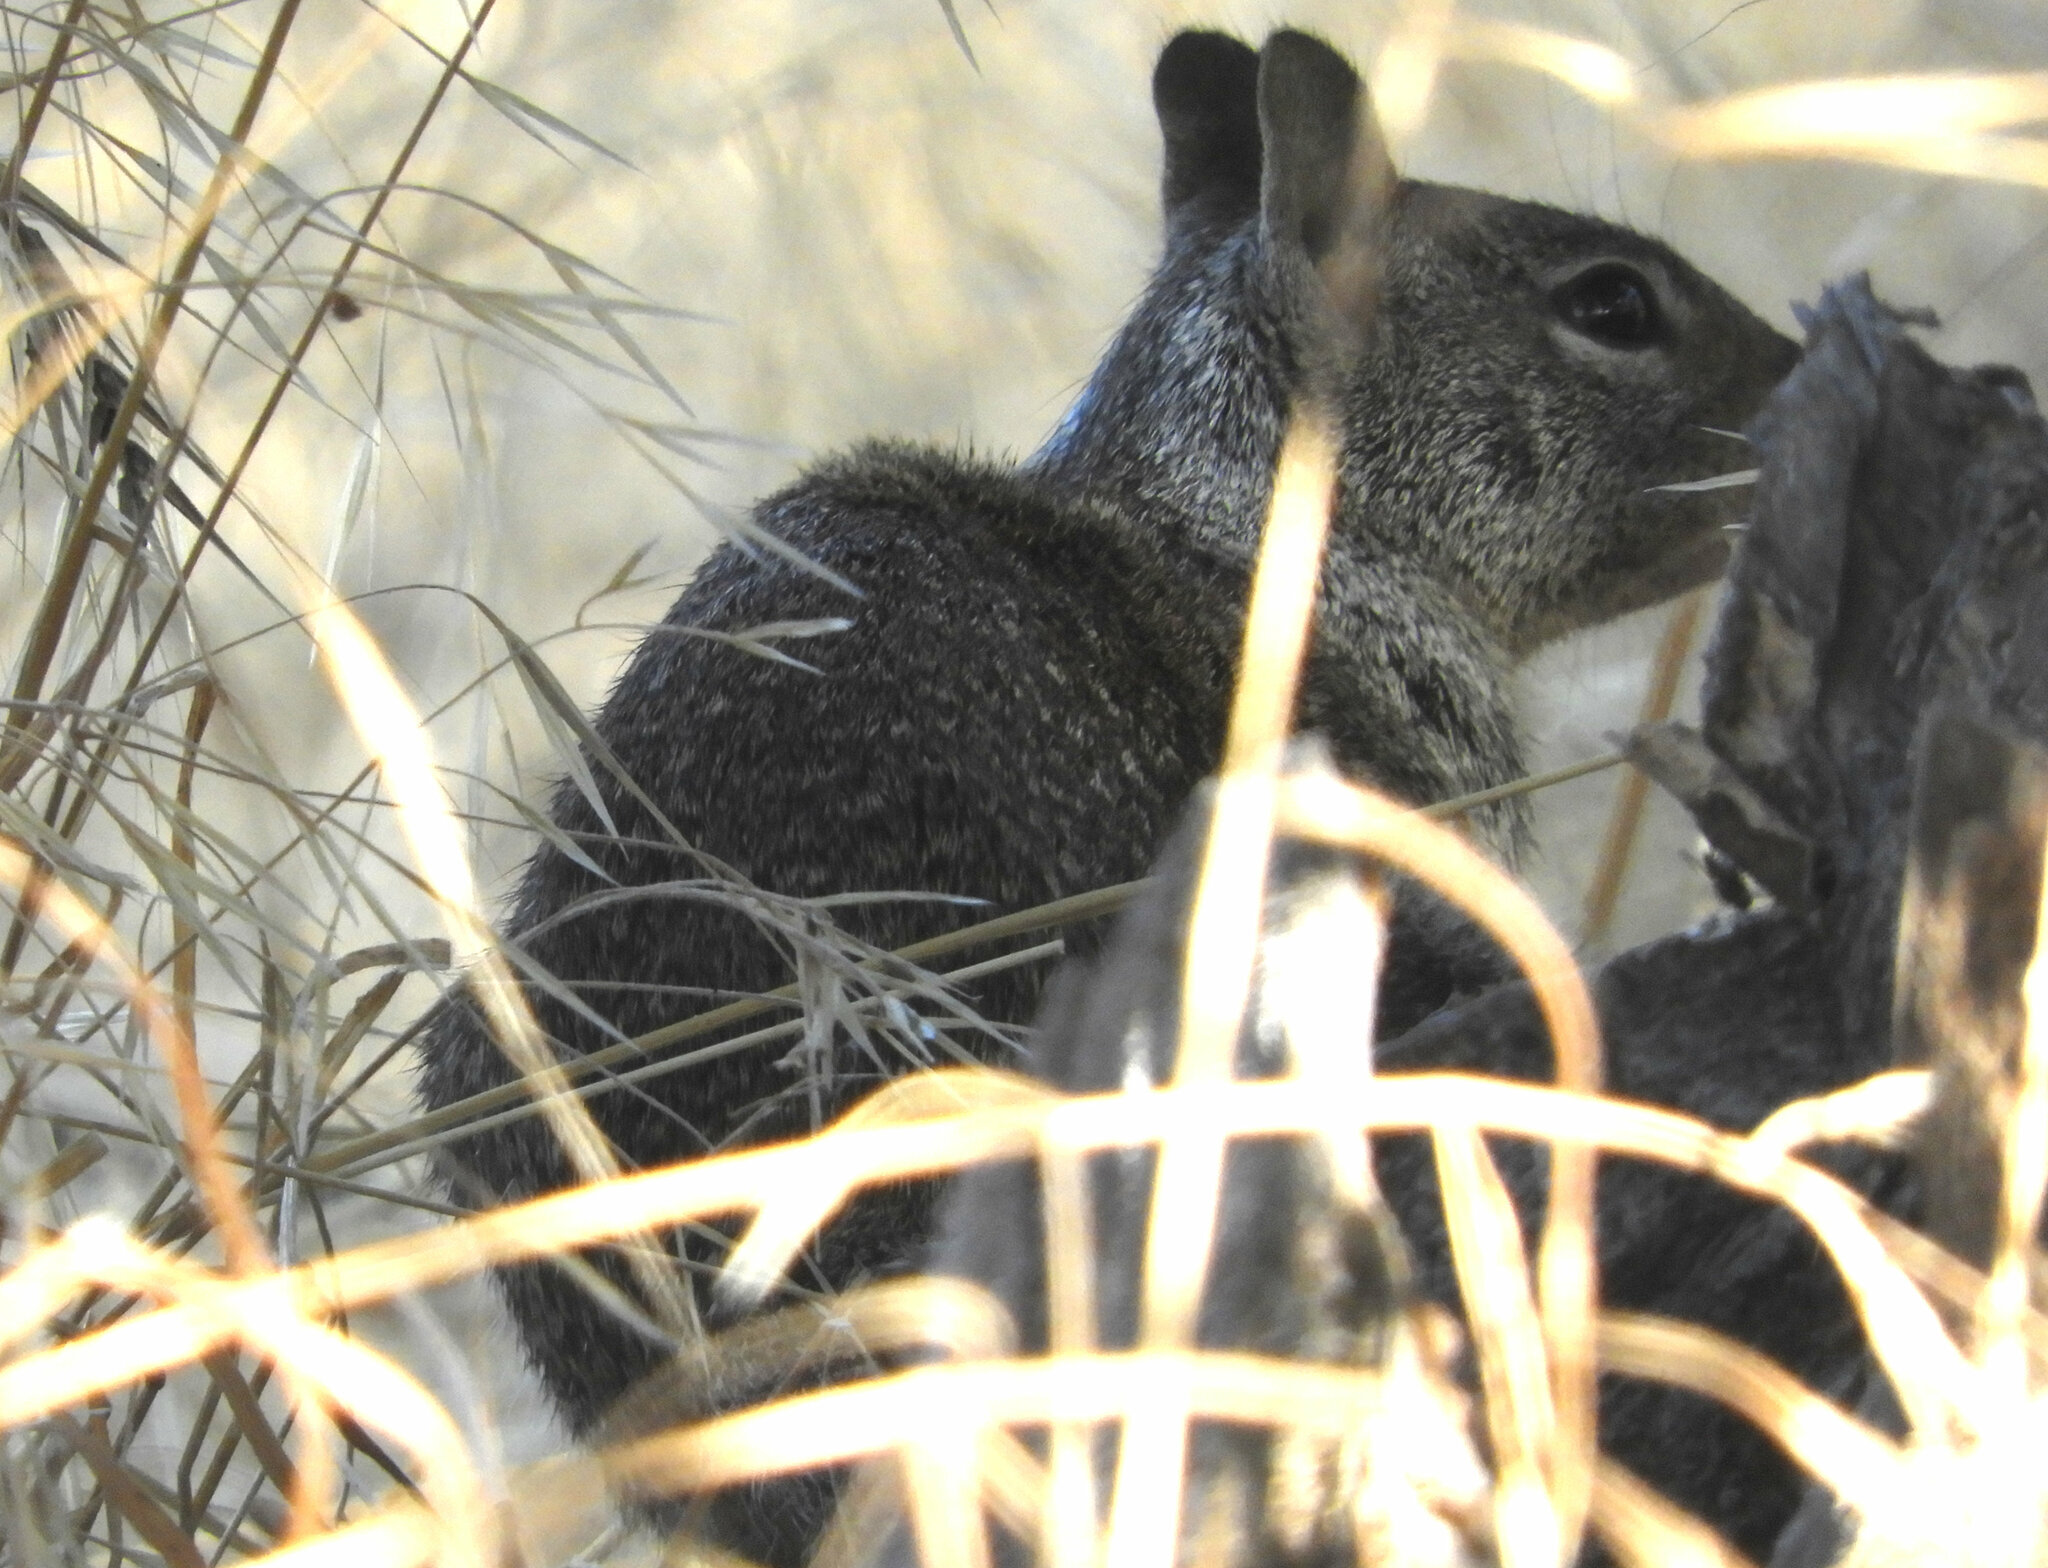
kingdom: Animalia
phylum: Chordata
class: Mammalia
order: Rodentia
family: Sciuridae
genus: Otospermophilus
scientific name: Otospermophilus beecheyi
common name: California ground squirrel
